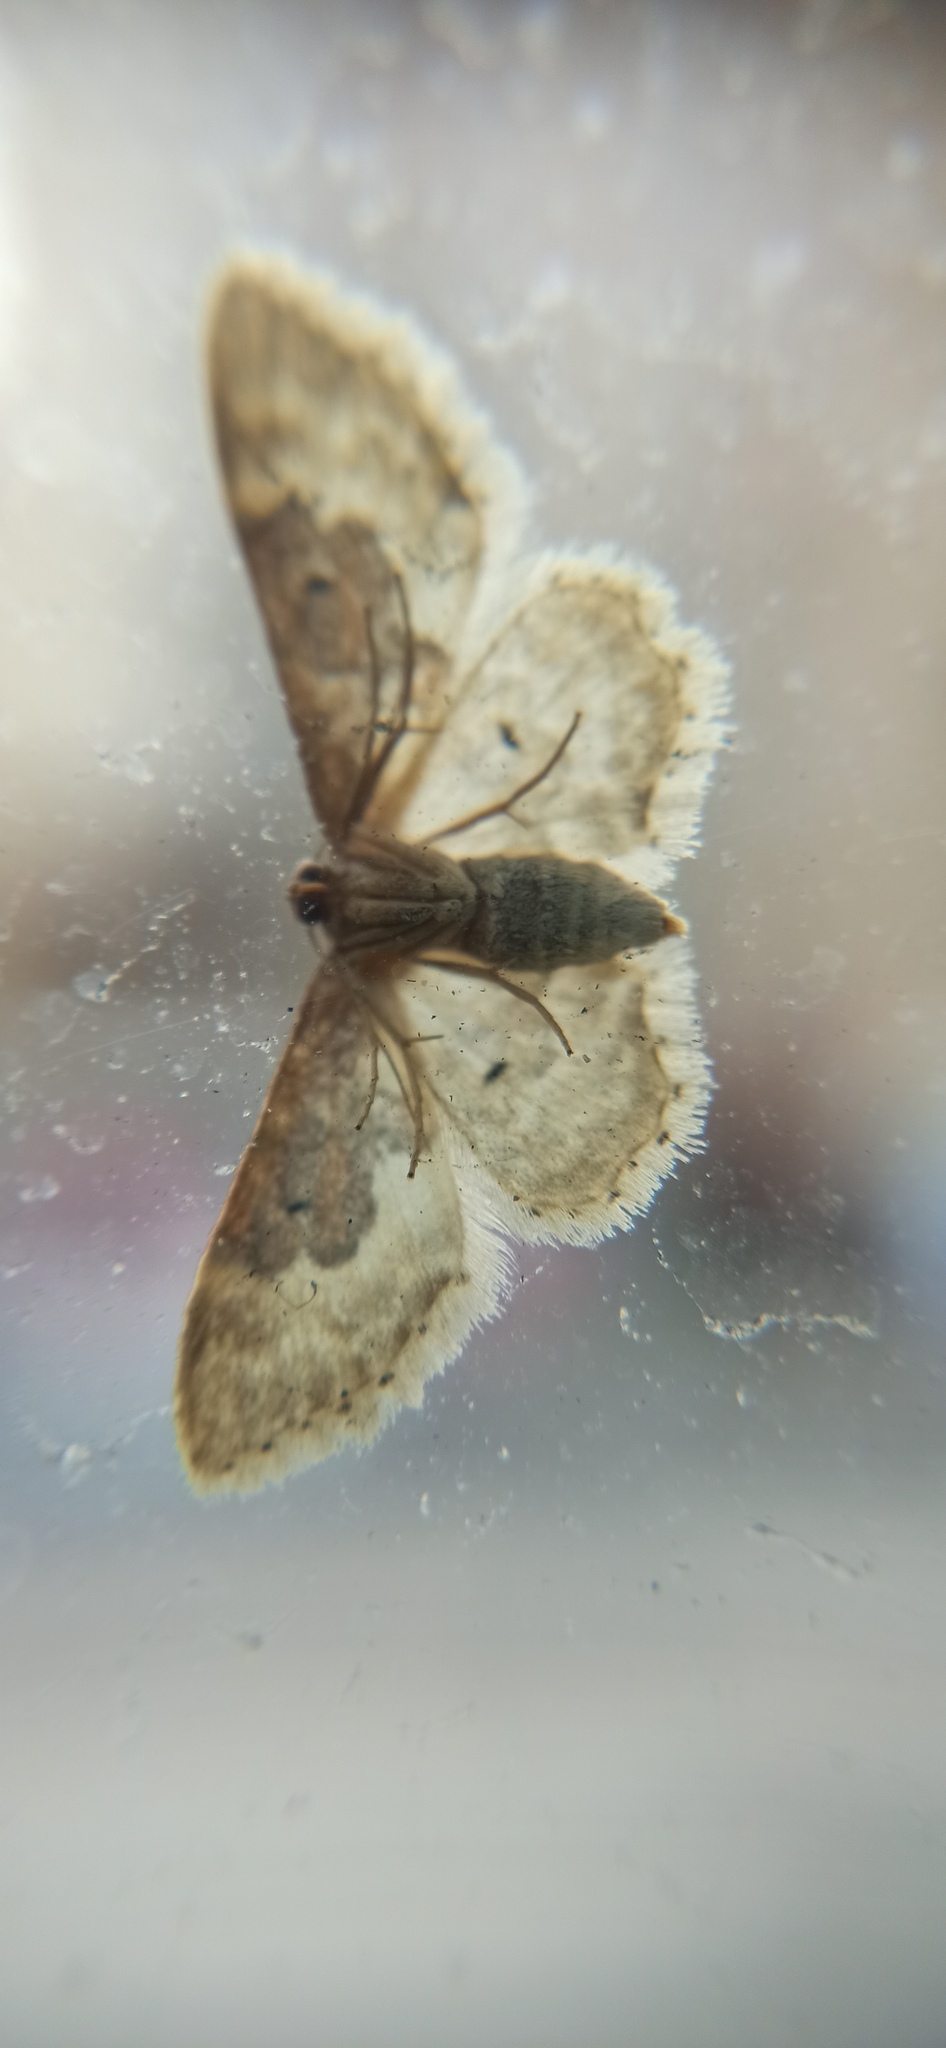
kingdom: Animalia
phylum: Arthropoda
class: Insecta
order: Lepidoptera
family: Geometridae
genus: Idaea
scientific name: Idaea rusticata
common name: Least carpet
